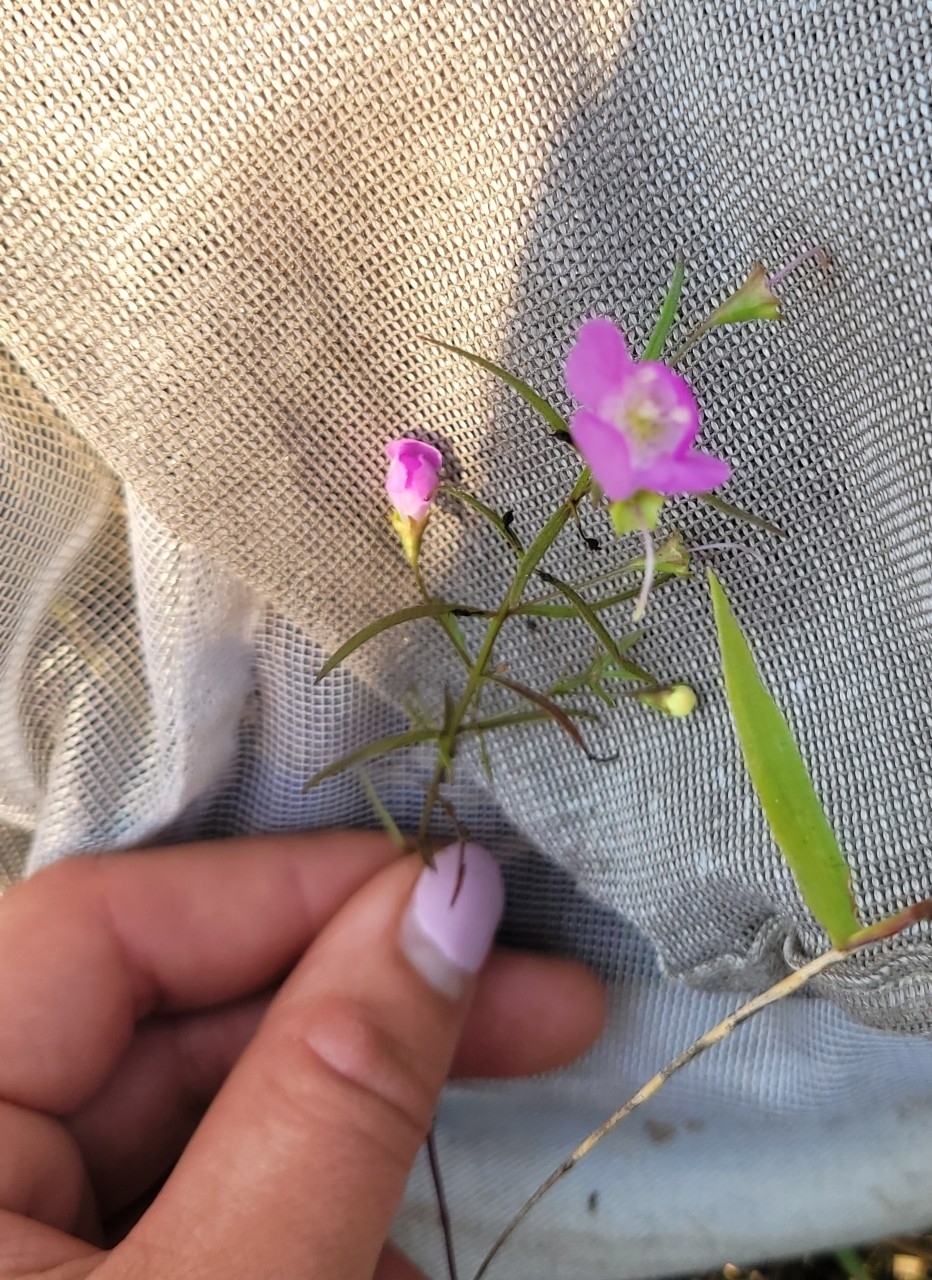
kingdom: Plantae
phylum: Tracheophyta
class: Magnoliopsida
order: Lamiales
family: Orobanchaceae
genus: Agalinis
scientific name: Agalinis tenuifolia
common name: Slender agalinis
